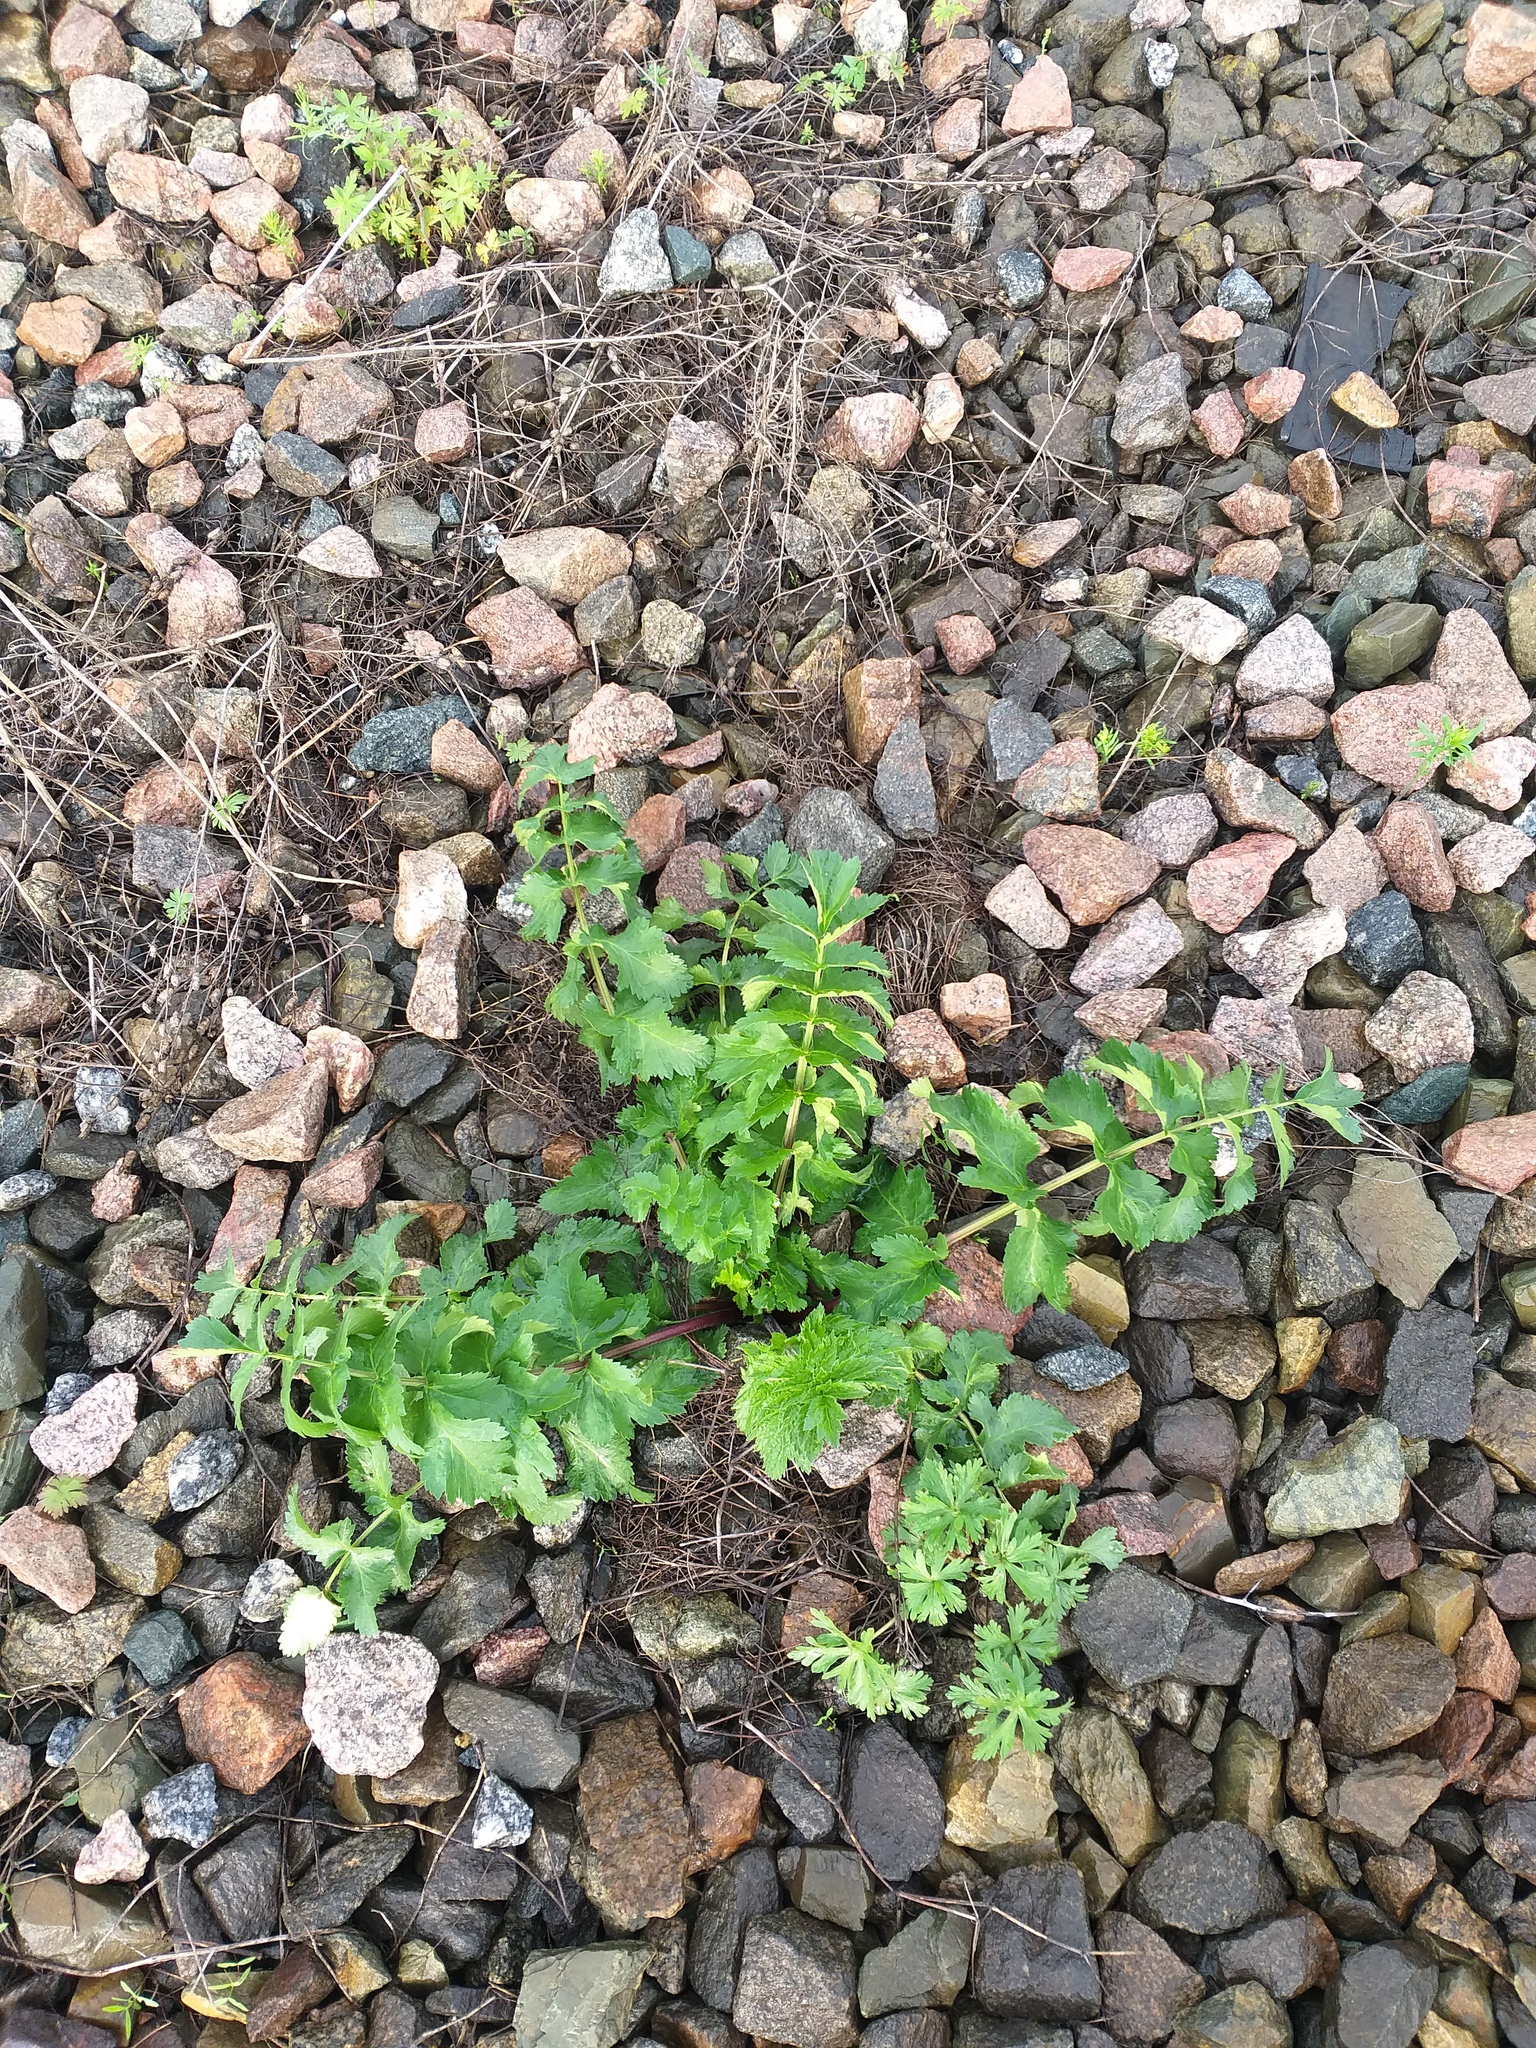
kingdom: Plantae
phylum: Tracheophyta
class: Magnoliopsida
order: Apiales
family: Apiaceae
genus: Pastinaca
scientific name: Pastinaca sativa
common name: Wild parsnip
